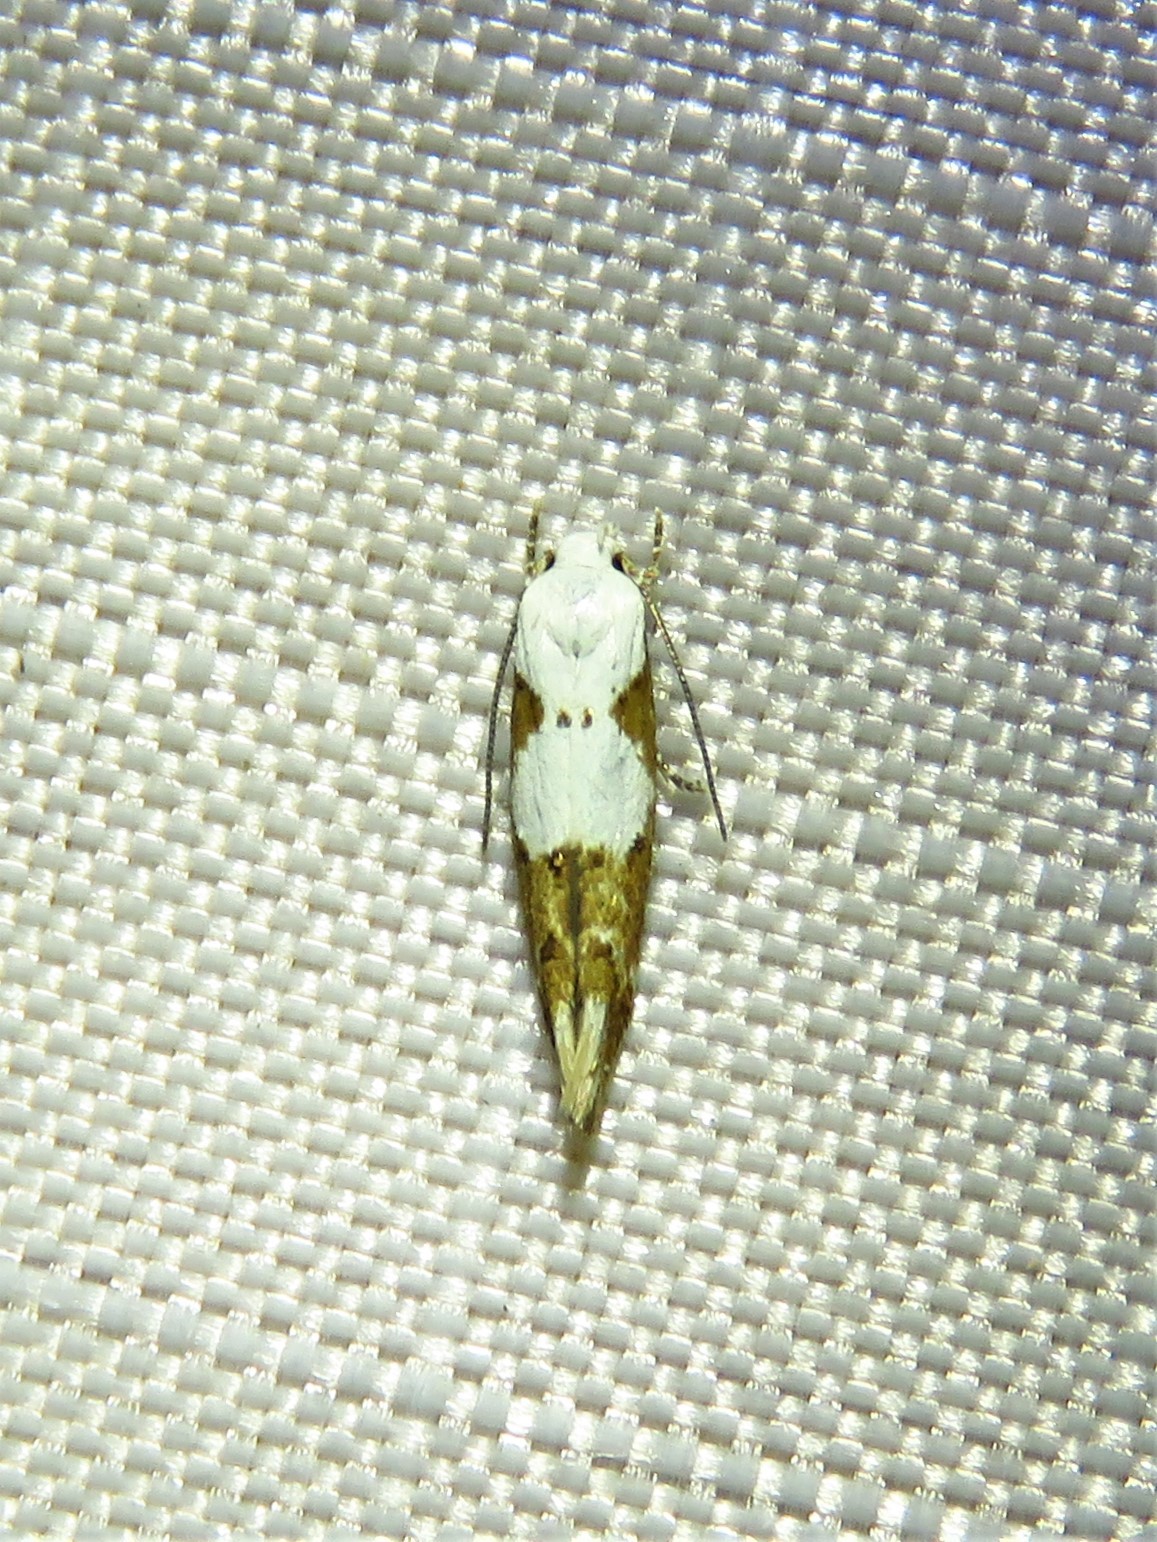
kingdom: Animalia
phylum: Arthropoda
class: Insecta
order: Lepidoptera
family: Momphidae
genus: Mompha
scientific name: Mompha circumscriptella
